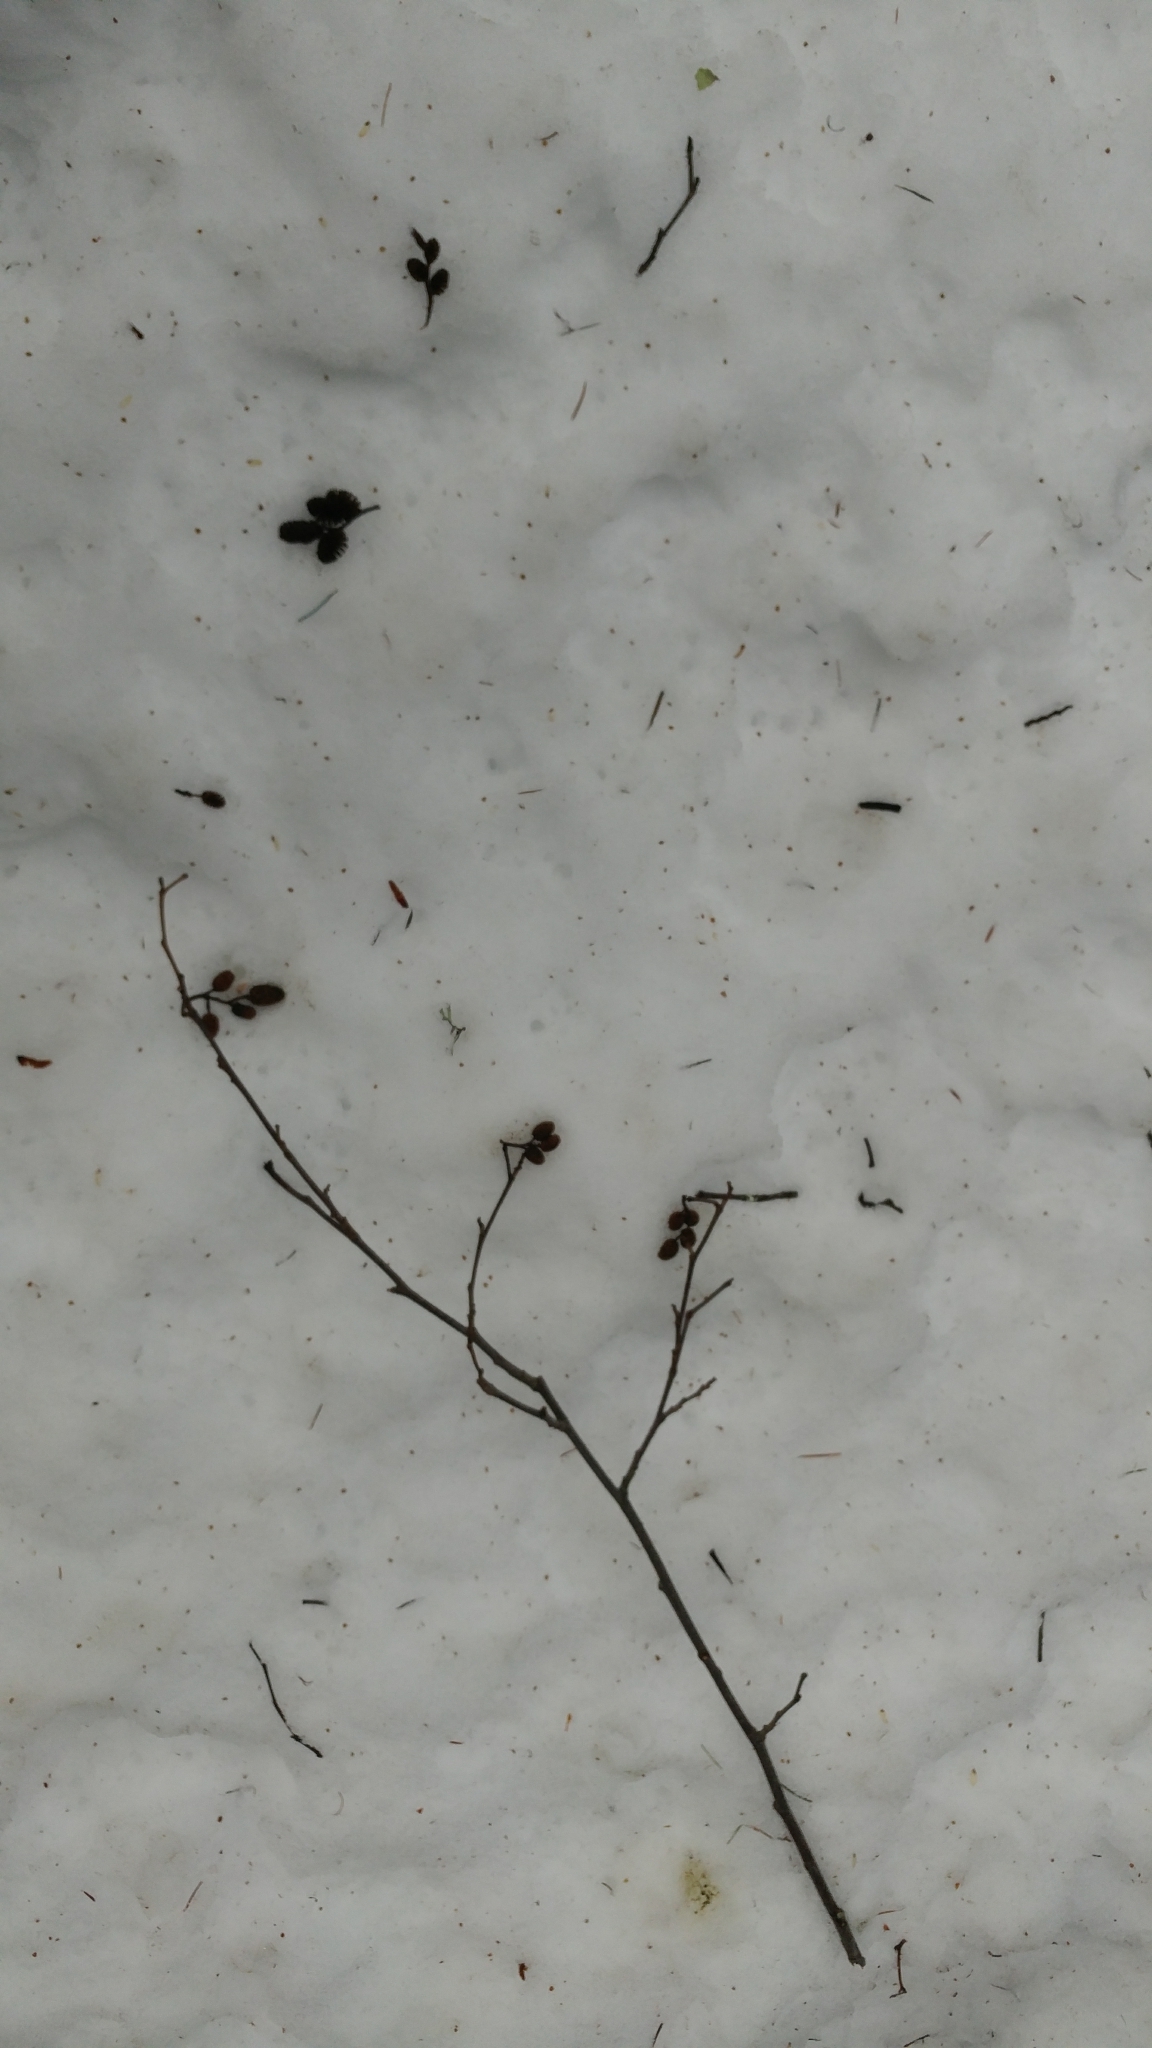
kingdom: Plantae
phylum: Tracheophyta
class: Magnoliopsida
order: Fagales
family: Betulaceae
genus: Alnus
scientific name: Alnus rubra
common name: Red alder
